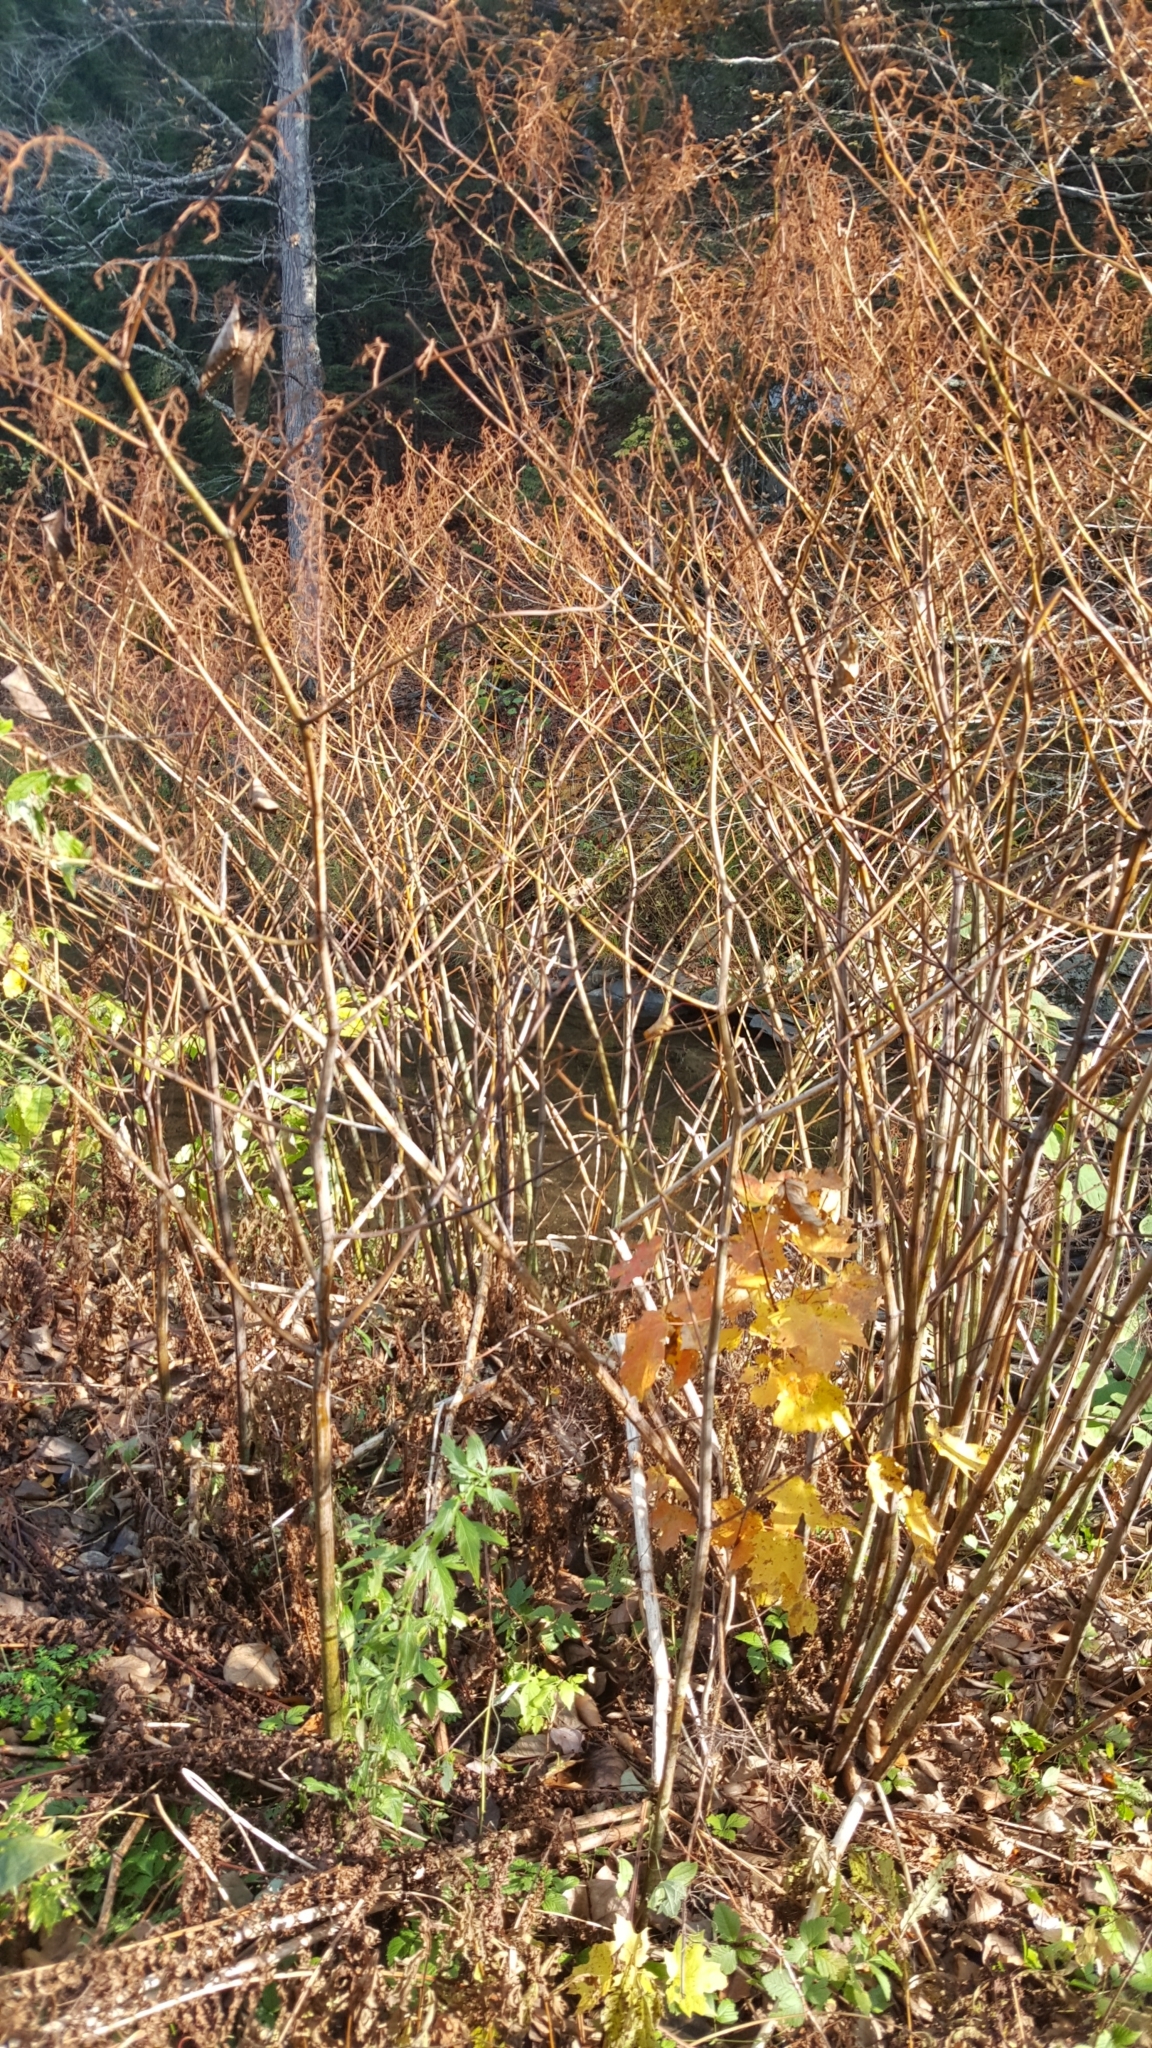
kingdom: Plantae
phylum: Tracheophyta
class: Magnoliopsida
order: Caryophyllales
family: Polygonaceae
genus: Reynoutria
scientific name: Reynoutria japonica
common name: Japanese knotweed
